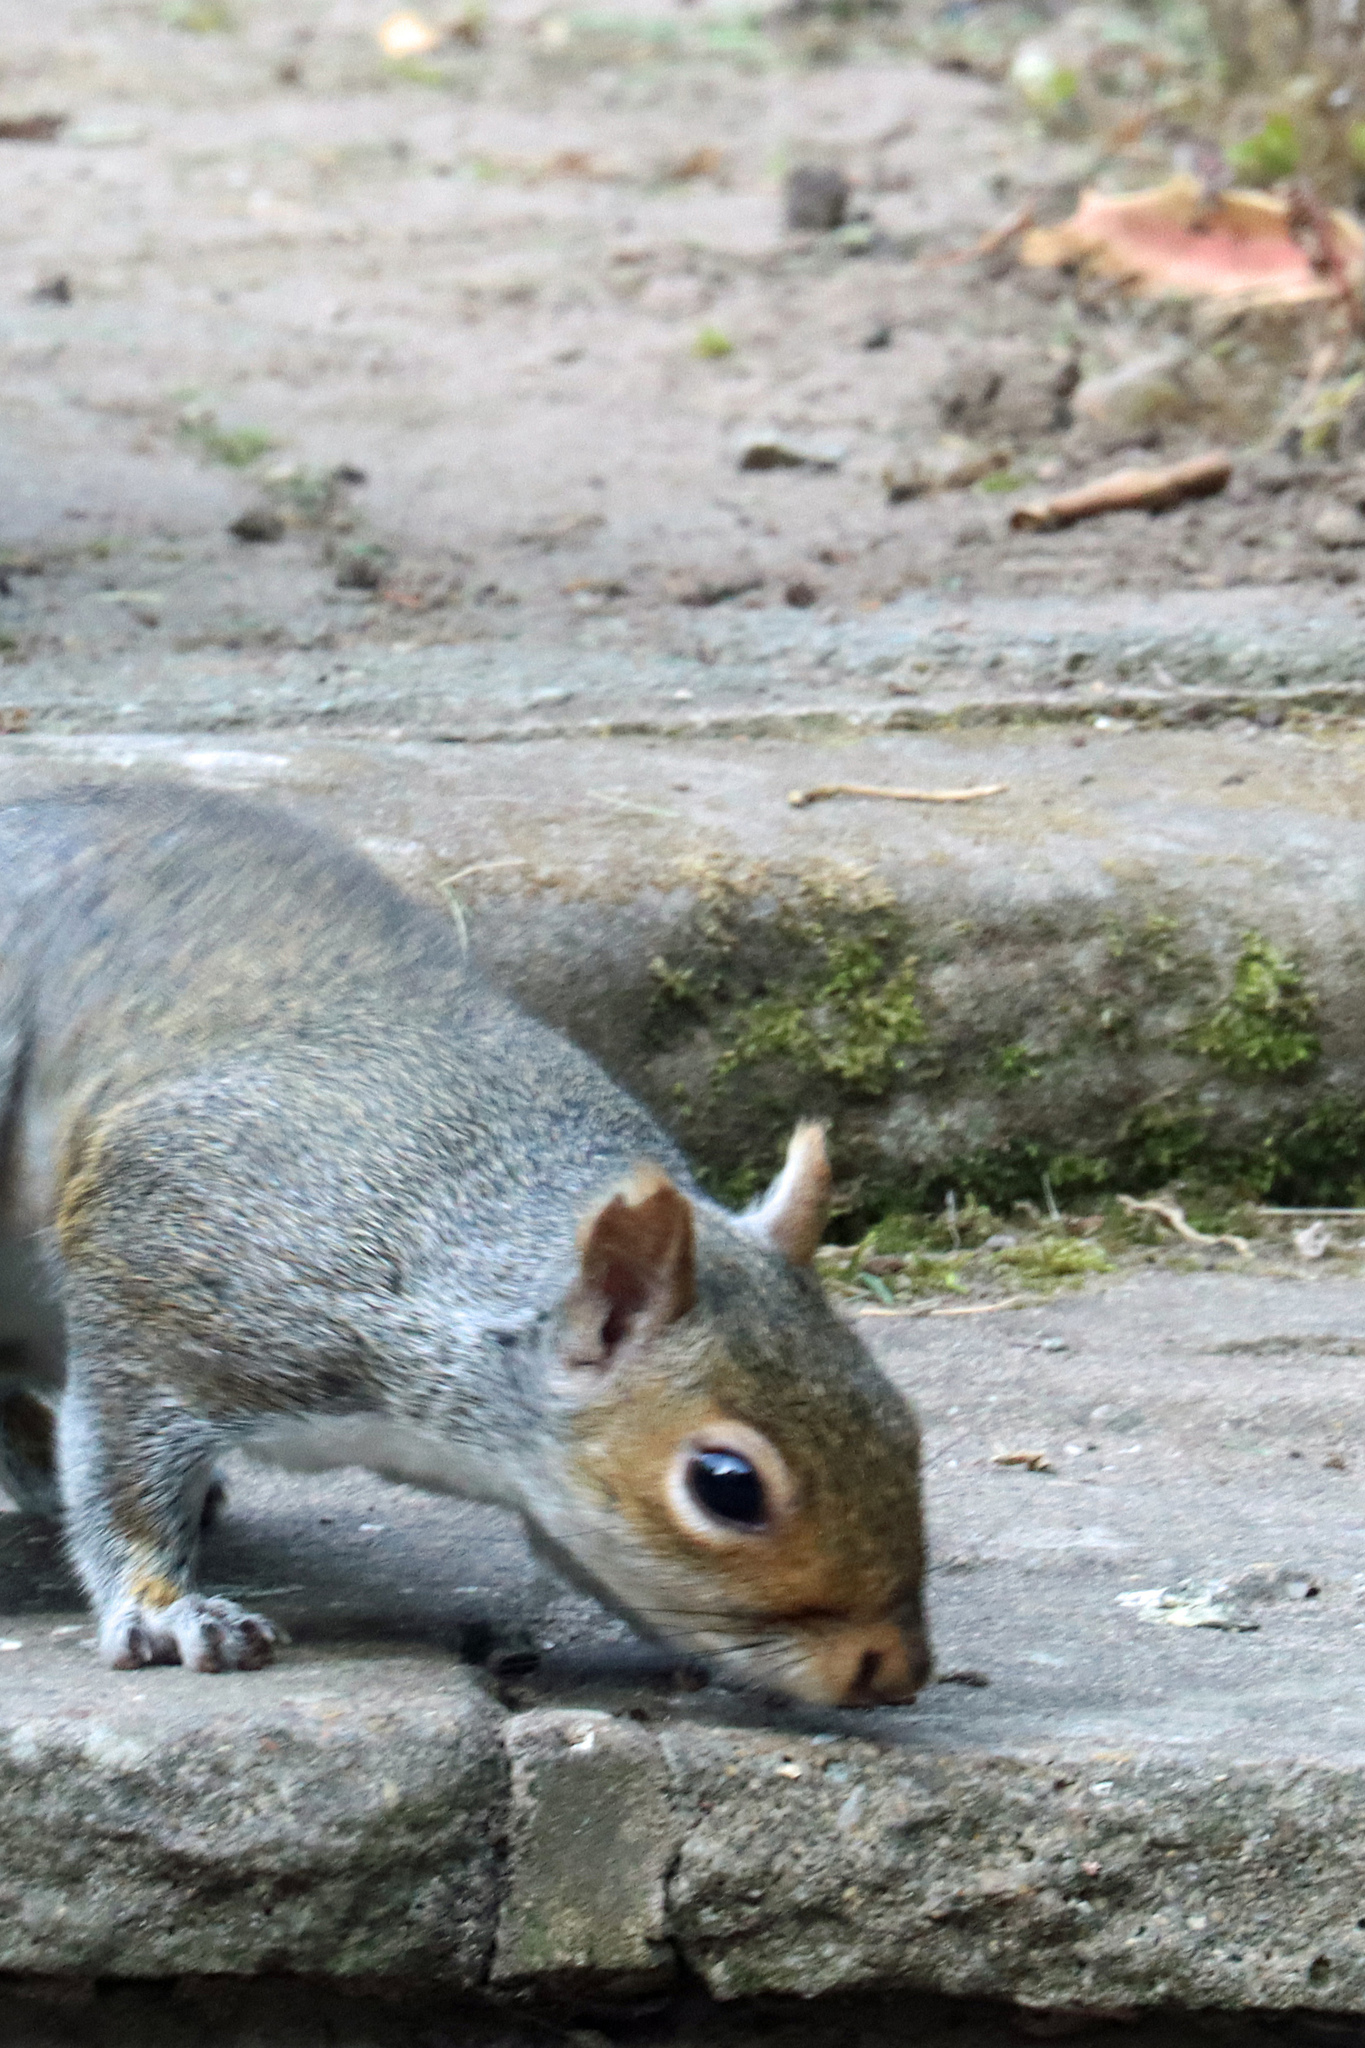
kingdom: Animalia
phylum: Chordata
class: Mammalia
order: Rodentia
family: Sciuridae
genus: Sciurus
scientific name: Sciurus carolinensis
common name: Eastern gray squirrel
